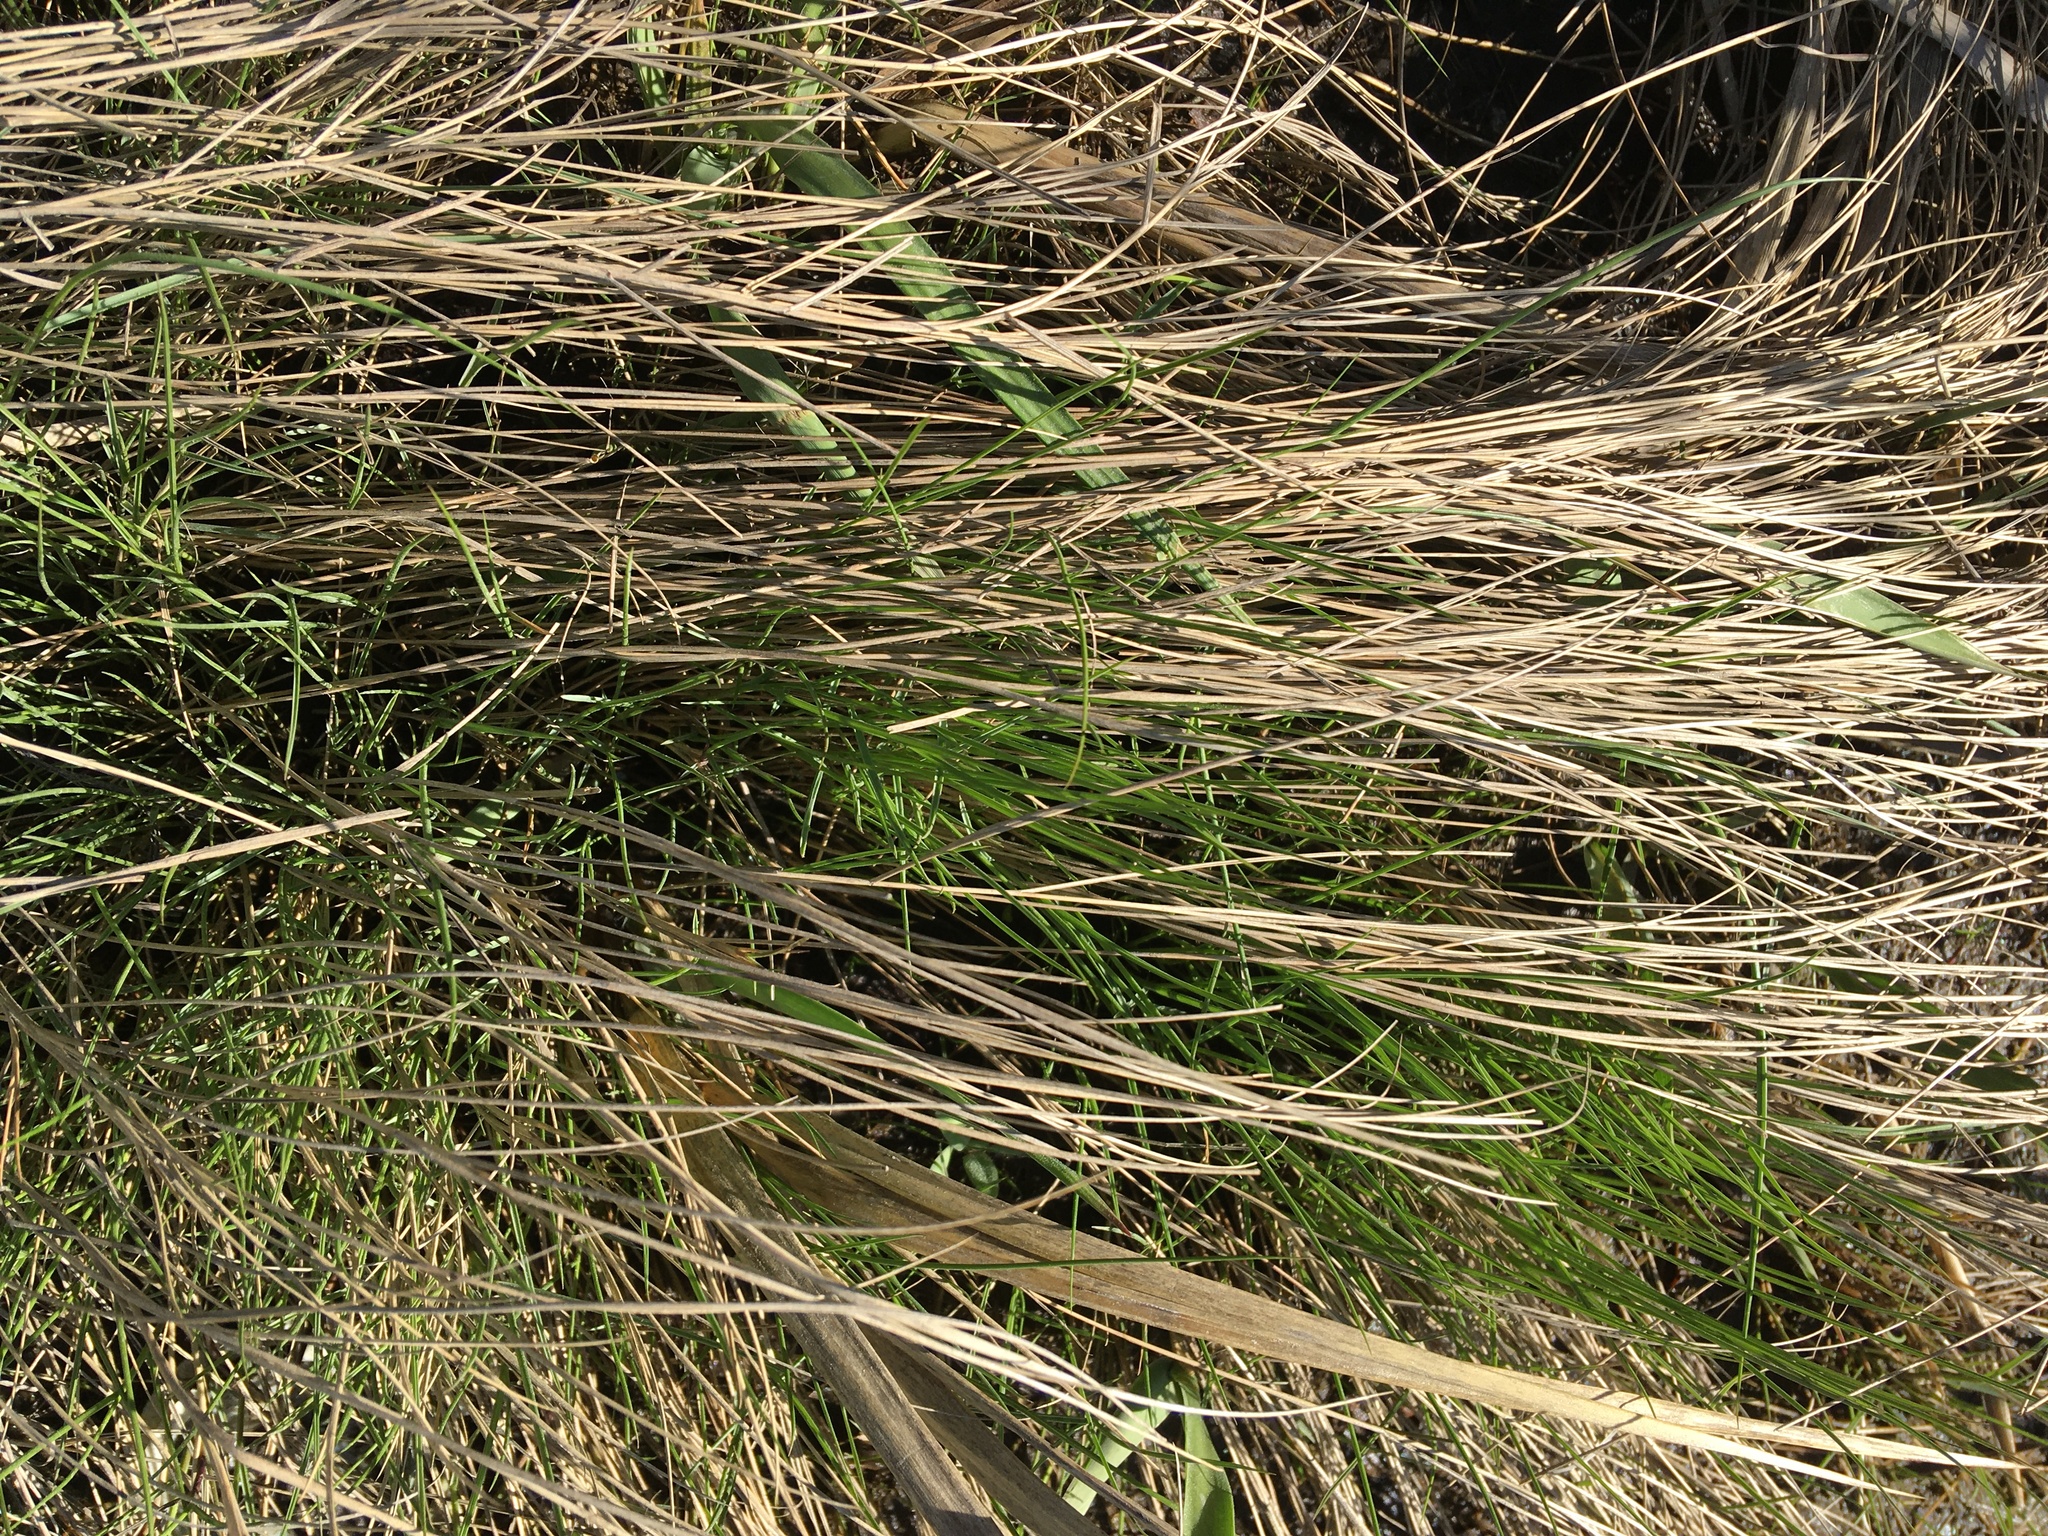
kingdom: Plantae
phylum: Tracheophyta
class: Liliopsida
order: Poales
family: Poaceae
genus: Sporobolus
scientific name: Sporobolus pumilus
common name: Highwater grass
